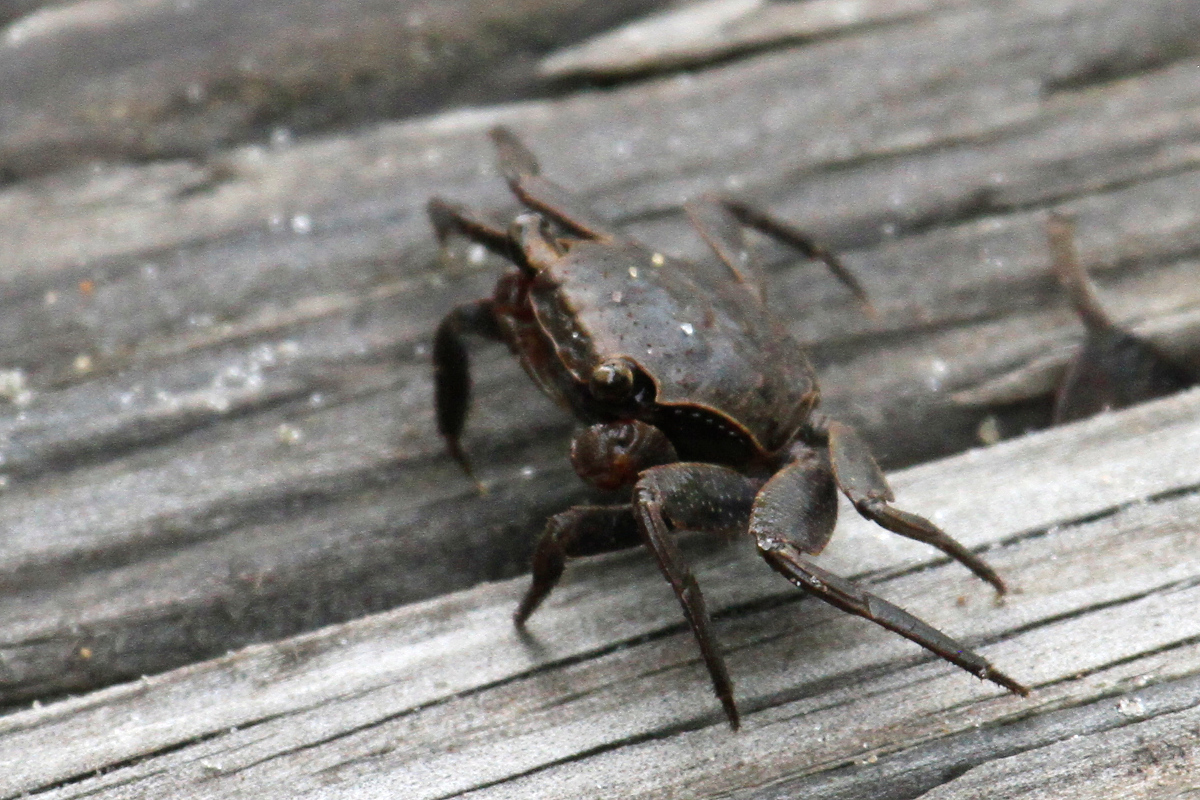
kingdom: Animalia
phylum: Arthropoda
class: Malacostraca
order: Decapoda
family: Sesarmidae
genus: Armases
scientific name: Armases cinereum
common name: Squareback marsh crab
